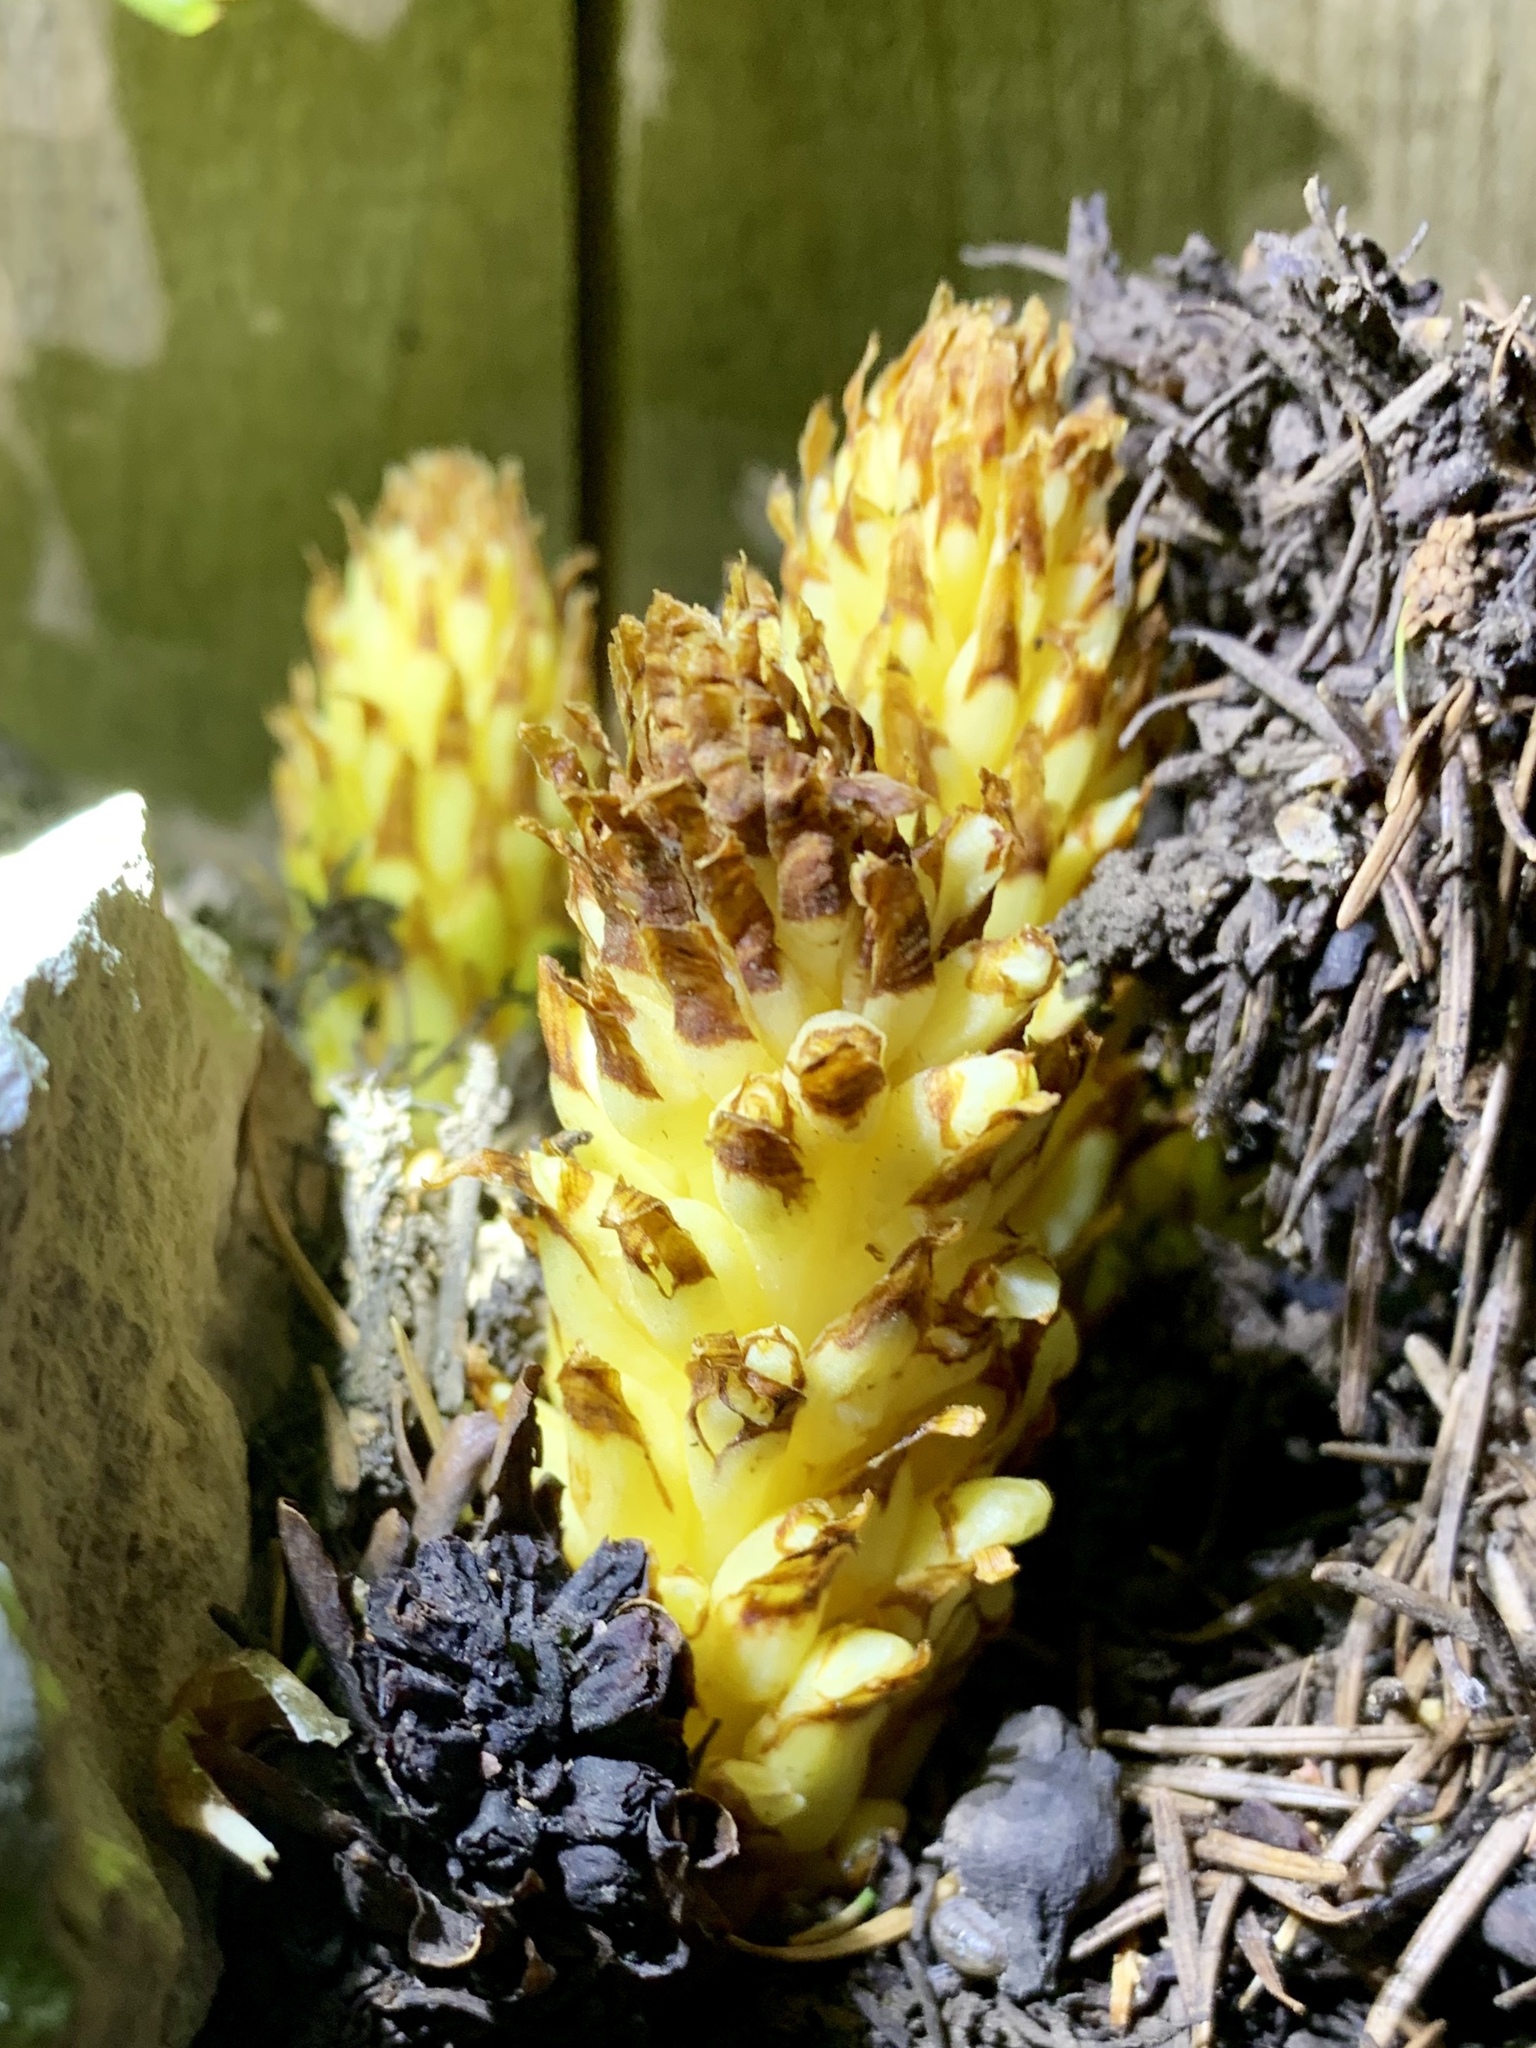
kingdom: Plantae
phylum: Tracheophyta
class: Magnoliopsida
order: Lamiales
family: Orobanchaceae
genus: Conopholis
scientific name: Conopholis alpina
